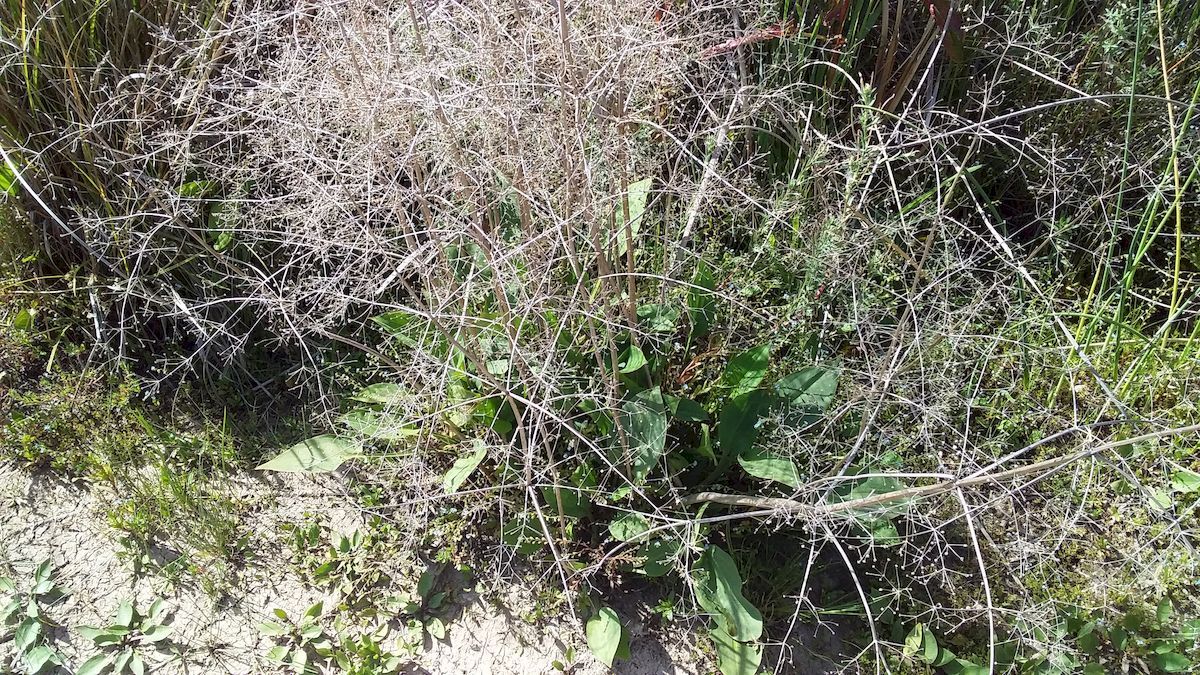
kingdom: Plantae
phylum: Tracheophyta
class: Liliopsida
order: Alismatales
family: Alismataceae
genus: Alisma
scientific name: Alisma plantago-aquatica
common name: Water-plantain
